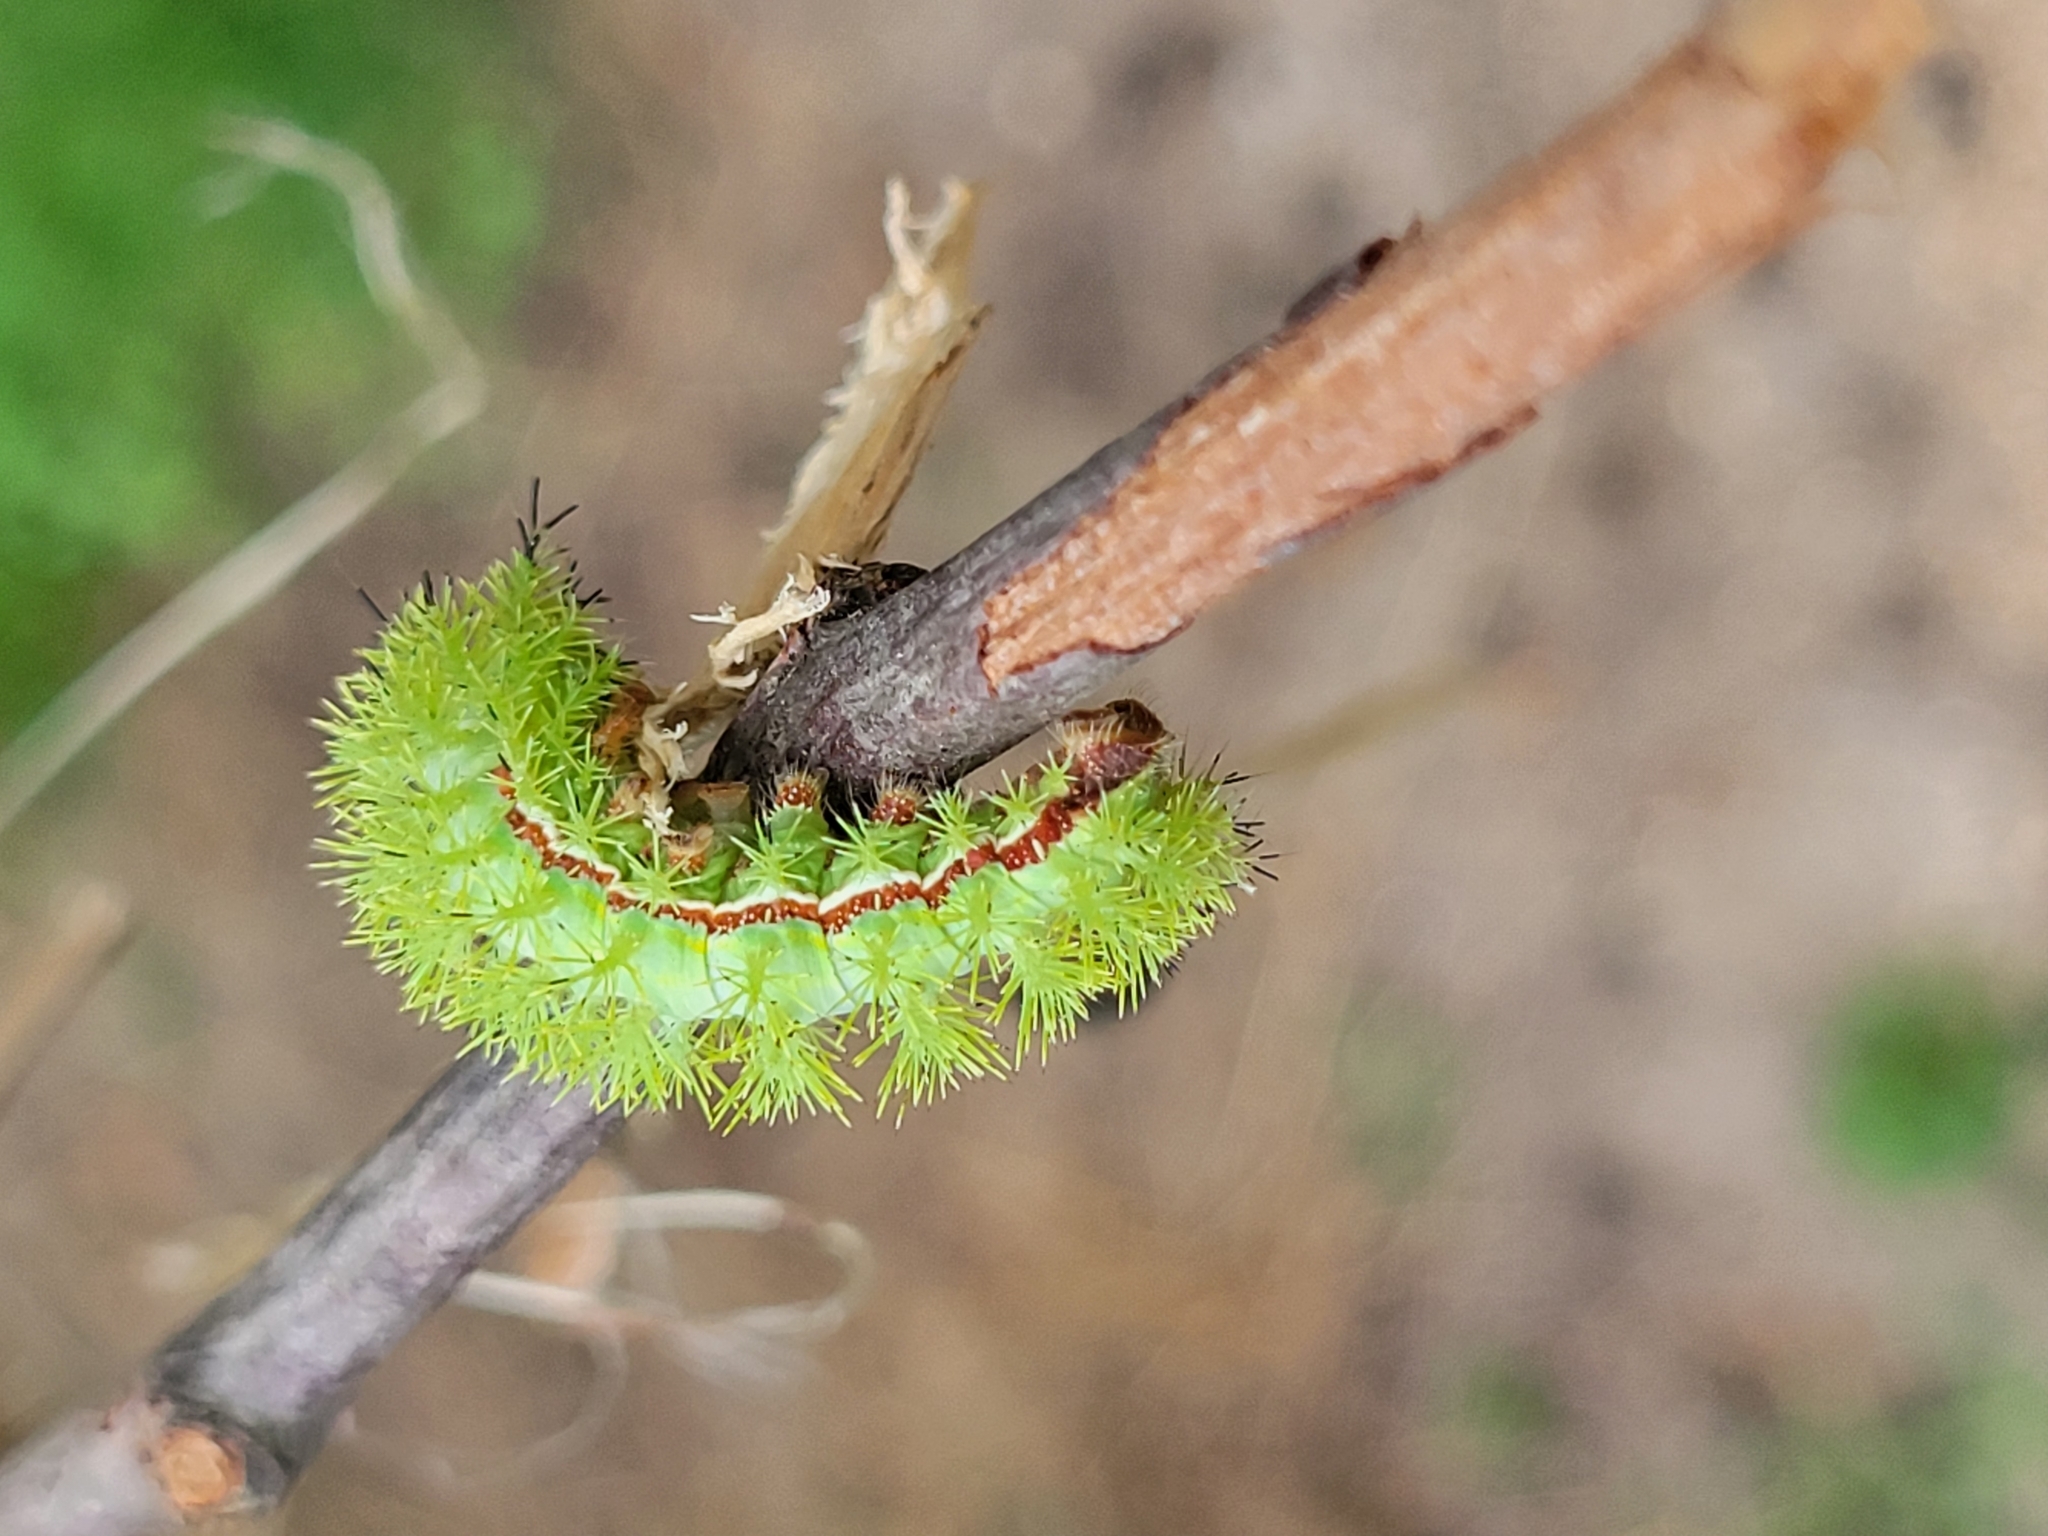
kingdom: Animalia
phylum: Arthropoda
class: Insecta
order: Lepidoptera
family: Saturniidae
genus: Automeris
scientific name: Automeris io
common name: Io moth
